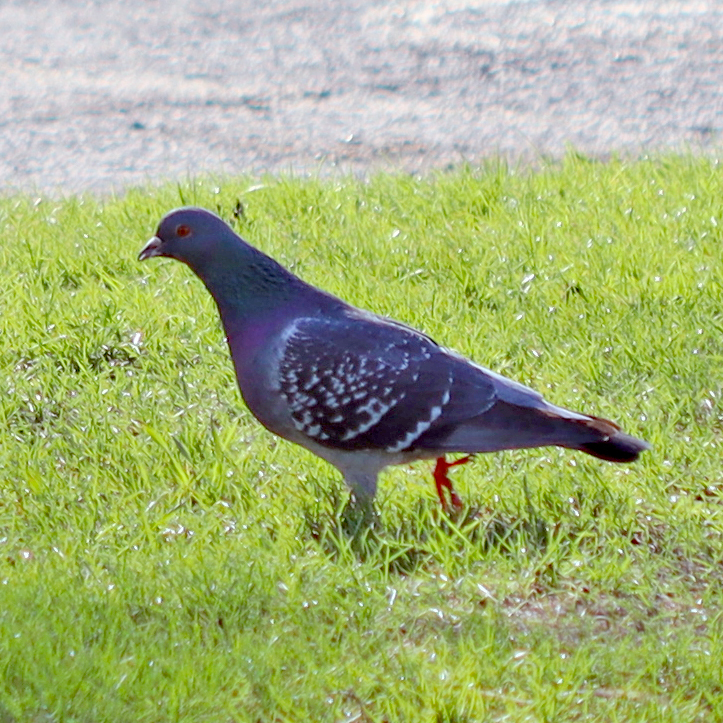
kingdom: Animalia
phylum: Chordata
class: Aves
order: Columbiformes
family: Columbidae
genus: Columba
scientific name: Columba livia
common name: Rock pigeon
